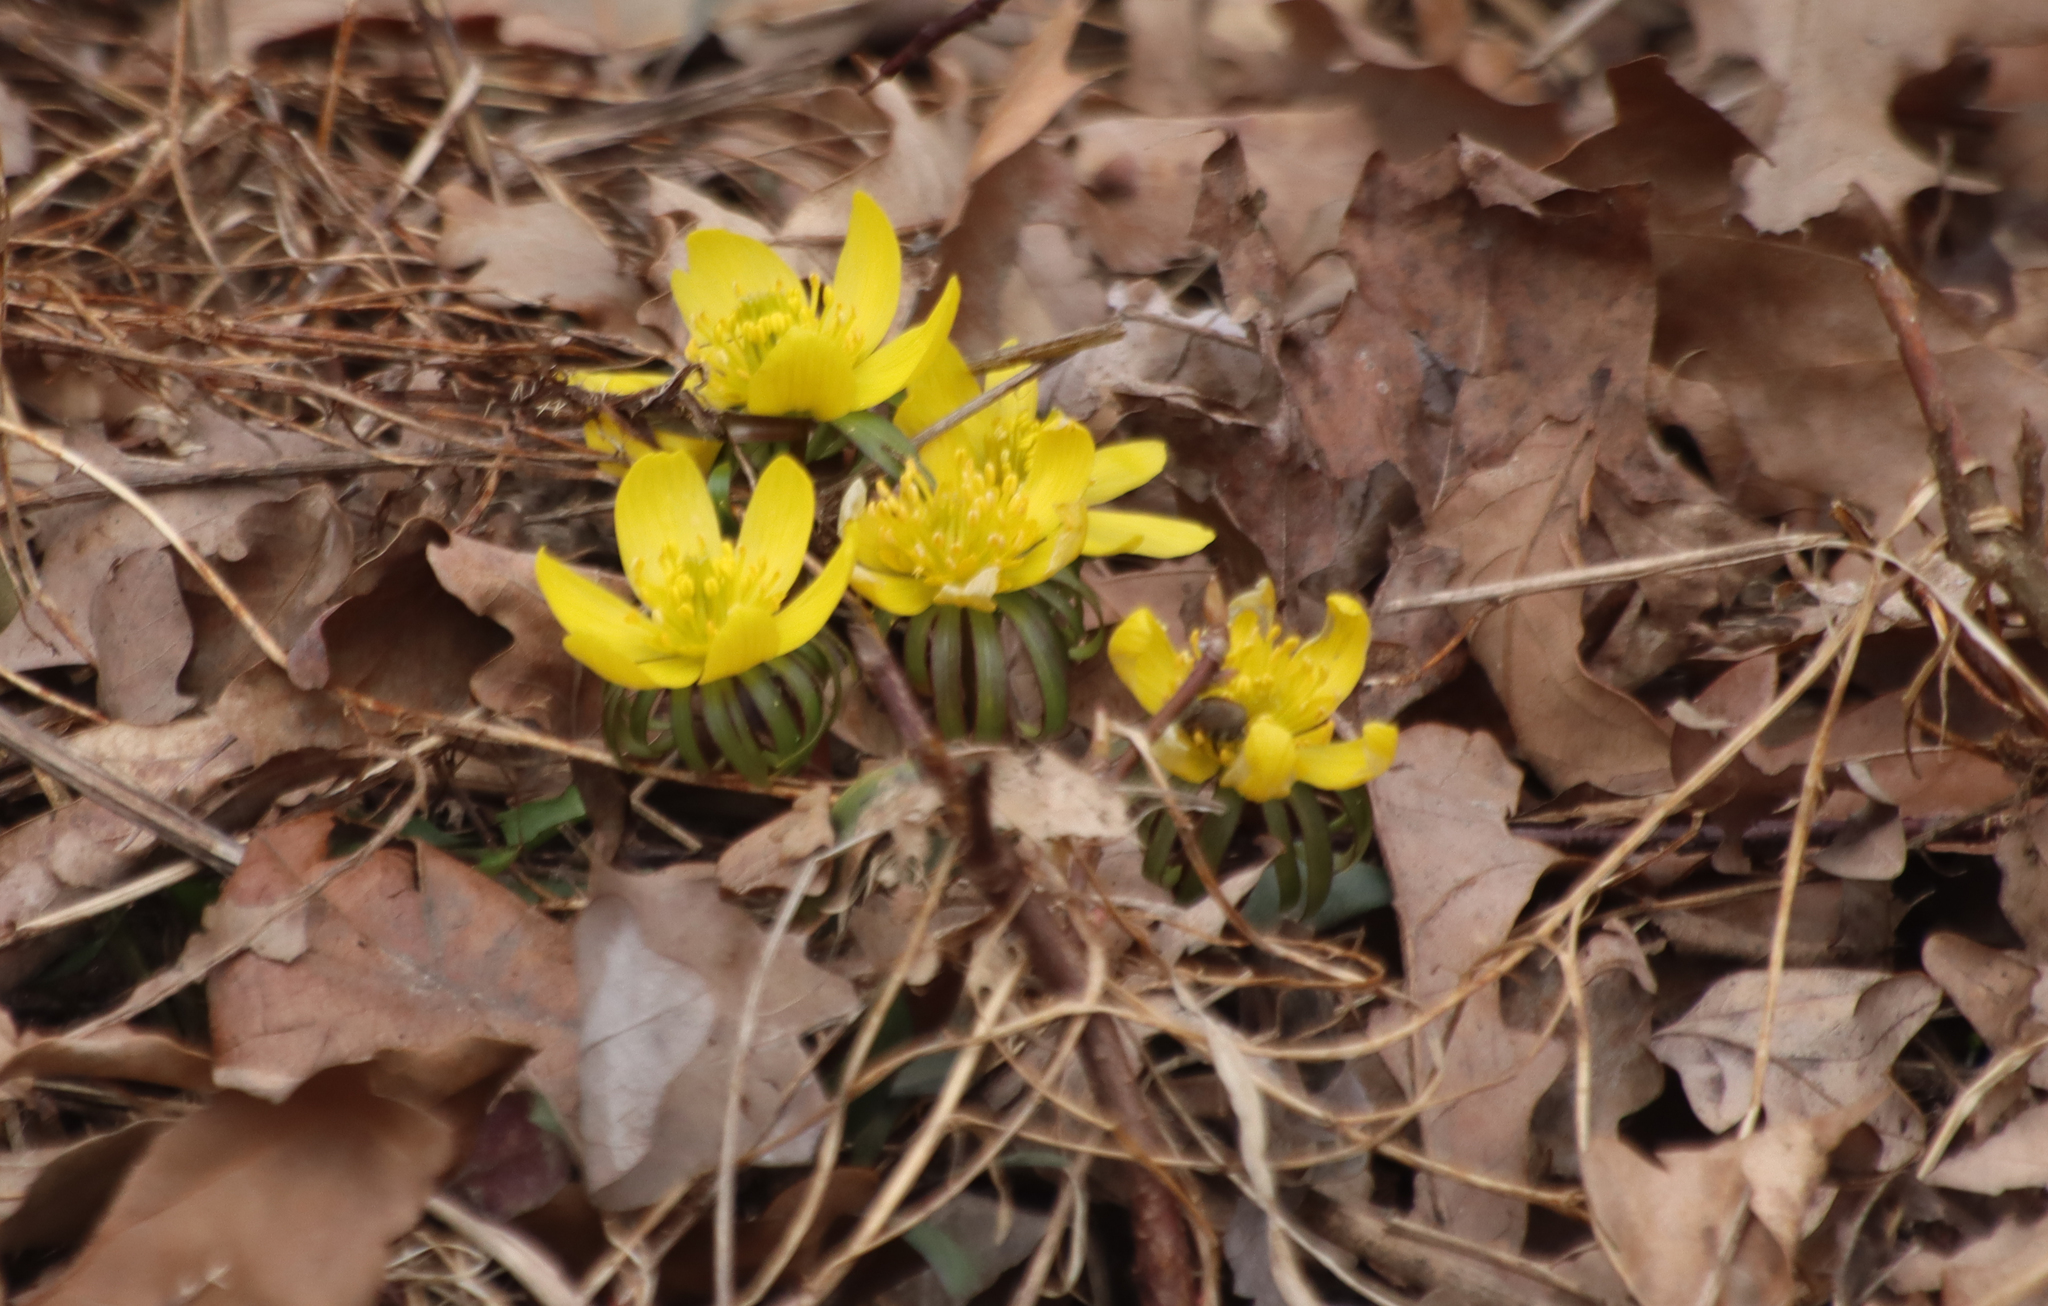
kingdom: Plantae
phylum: Tracheophyta
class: Magnoliopsida
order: Ranunculales
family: Ranunculaceae
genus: Eranthis
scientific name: Eranthis hyemalis
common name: Winter aconite
